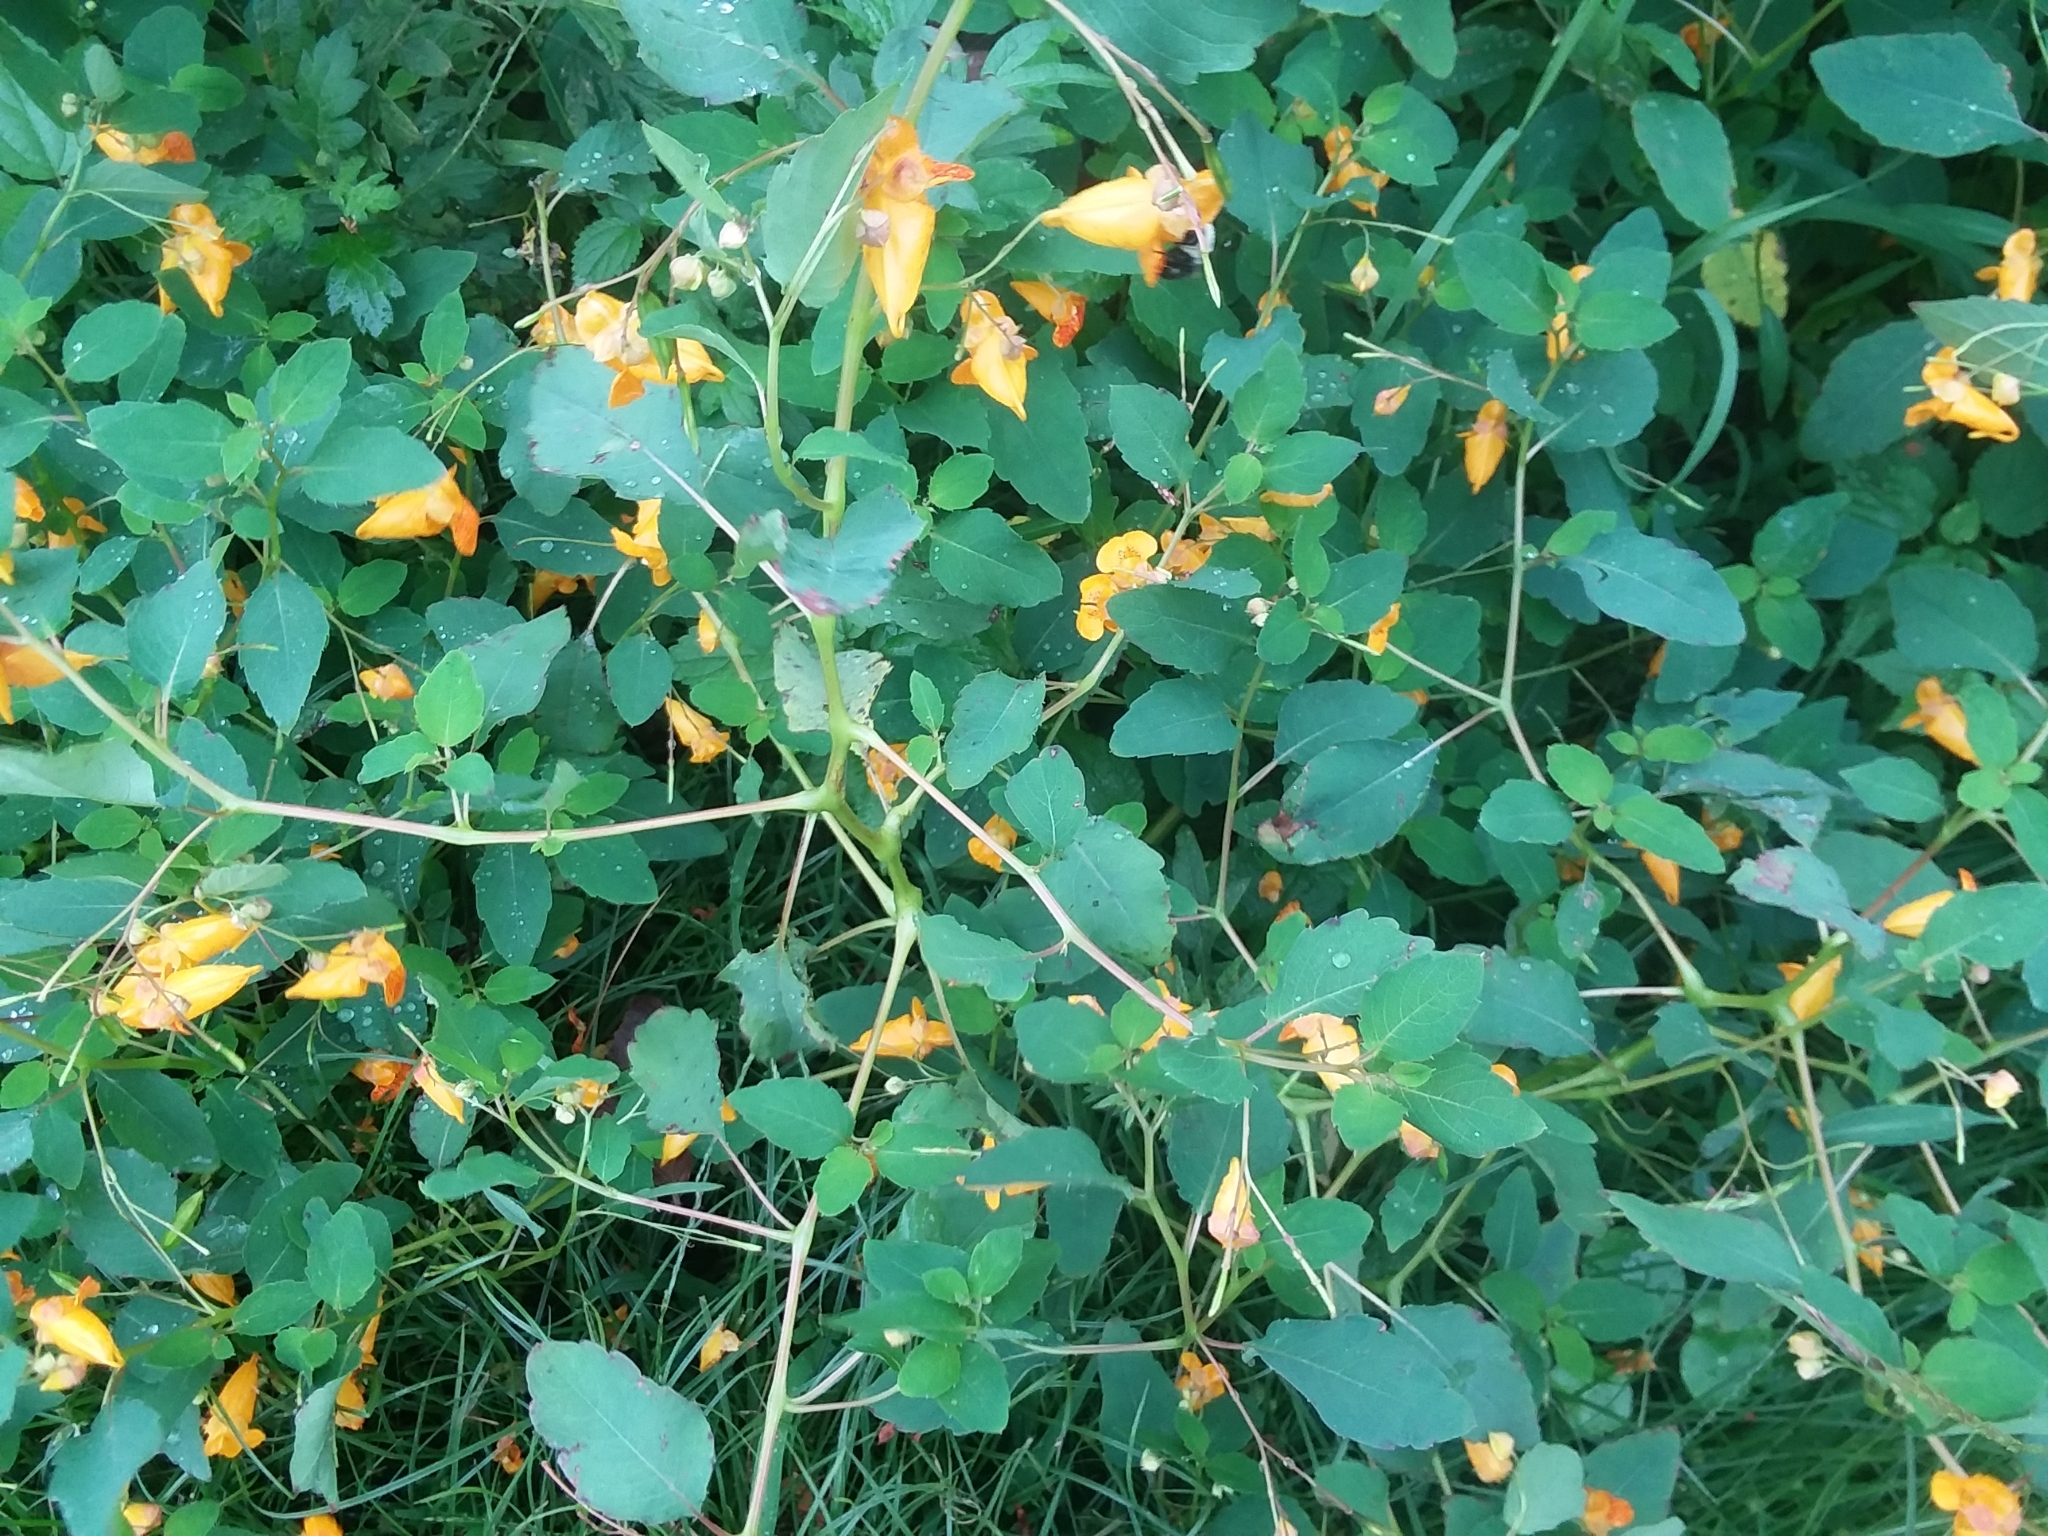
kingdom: Plantae
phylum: Tracheophyta
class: Magnoliopsida
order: Ericales
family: Balsaminaceae
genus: Impatiens
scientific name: Impatiens capensis
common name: Orange balsam
